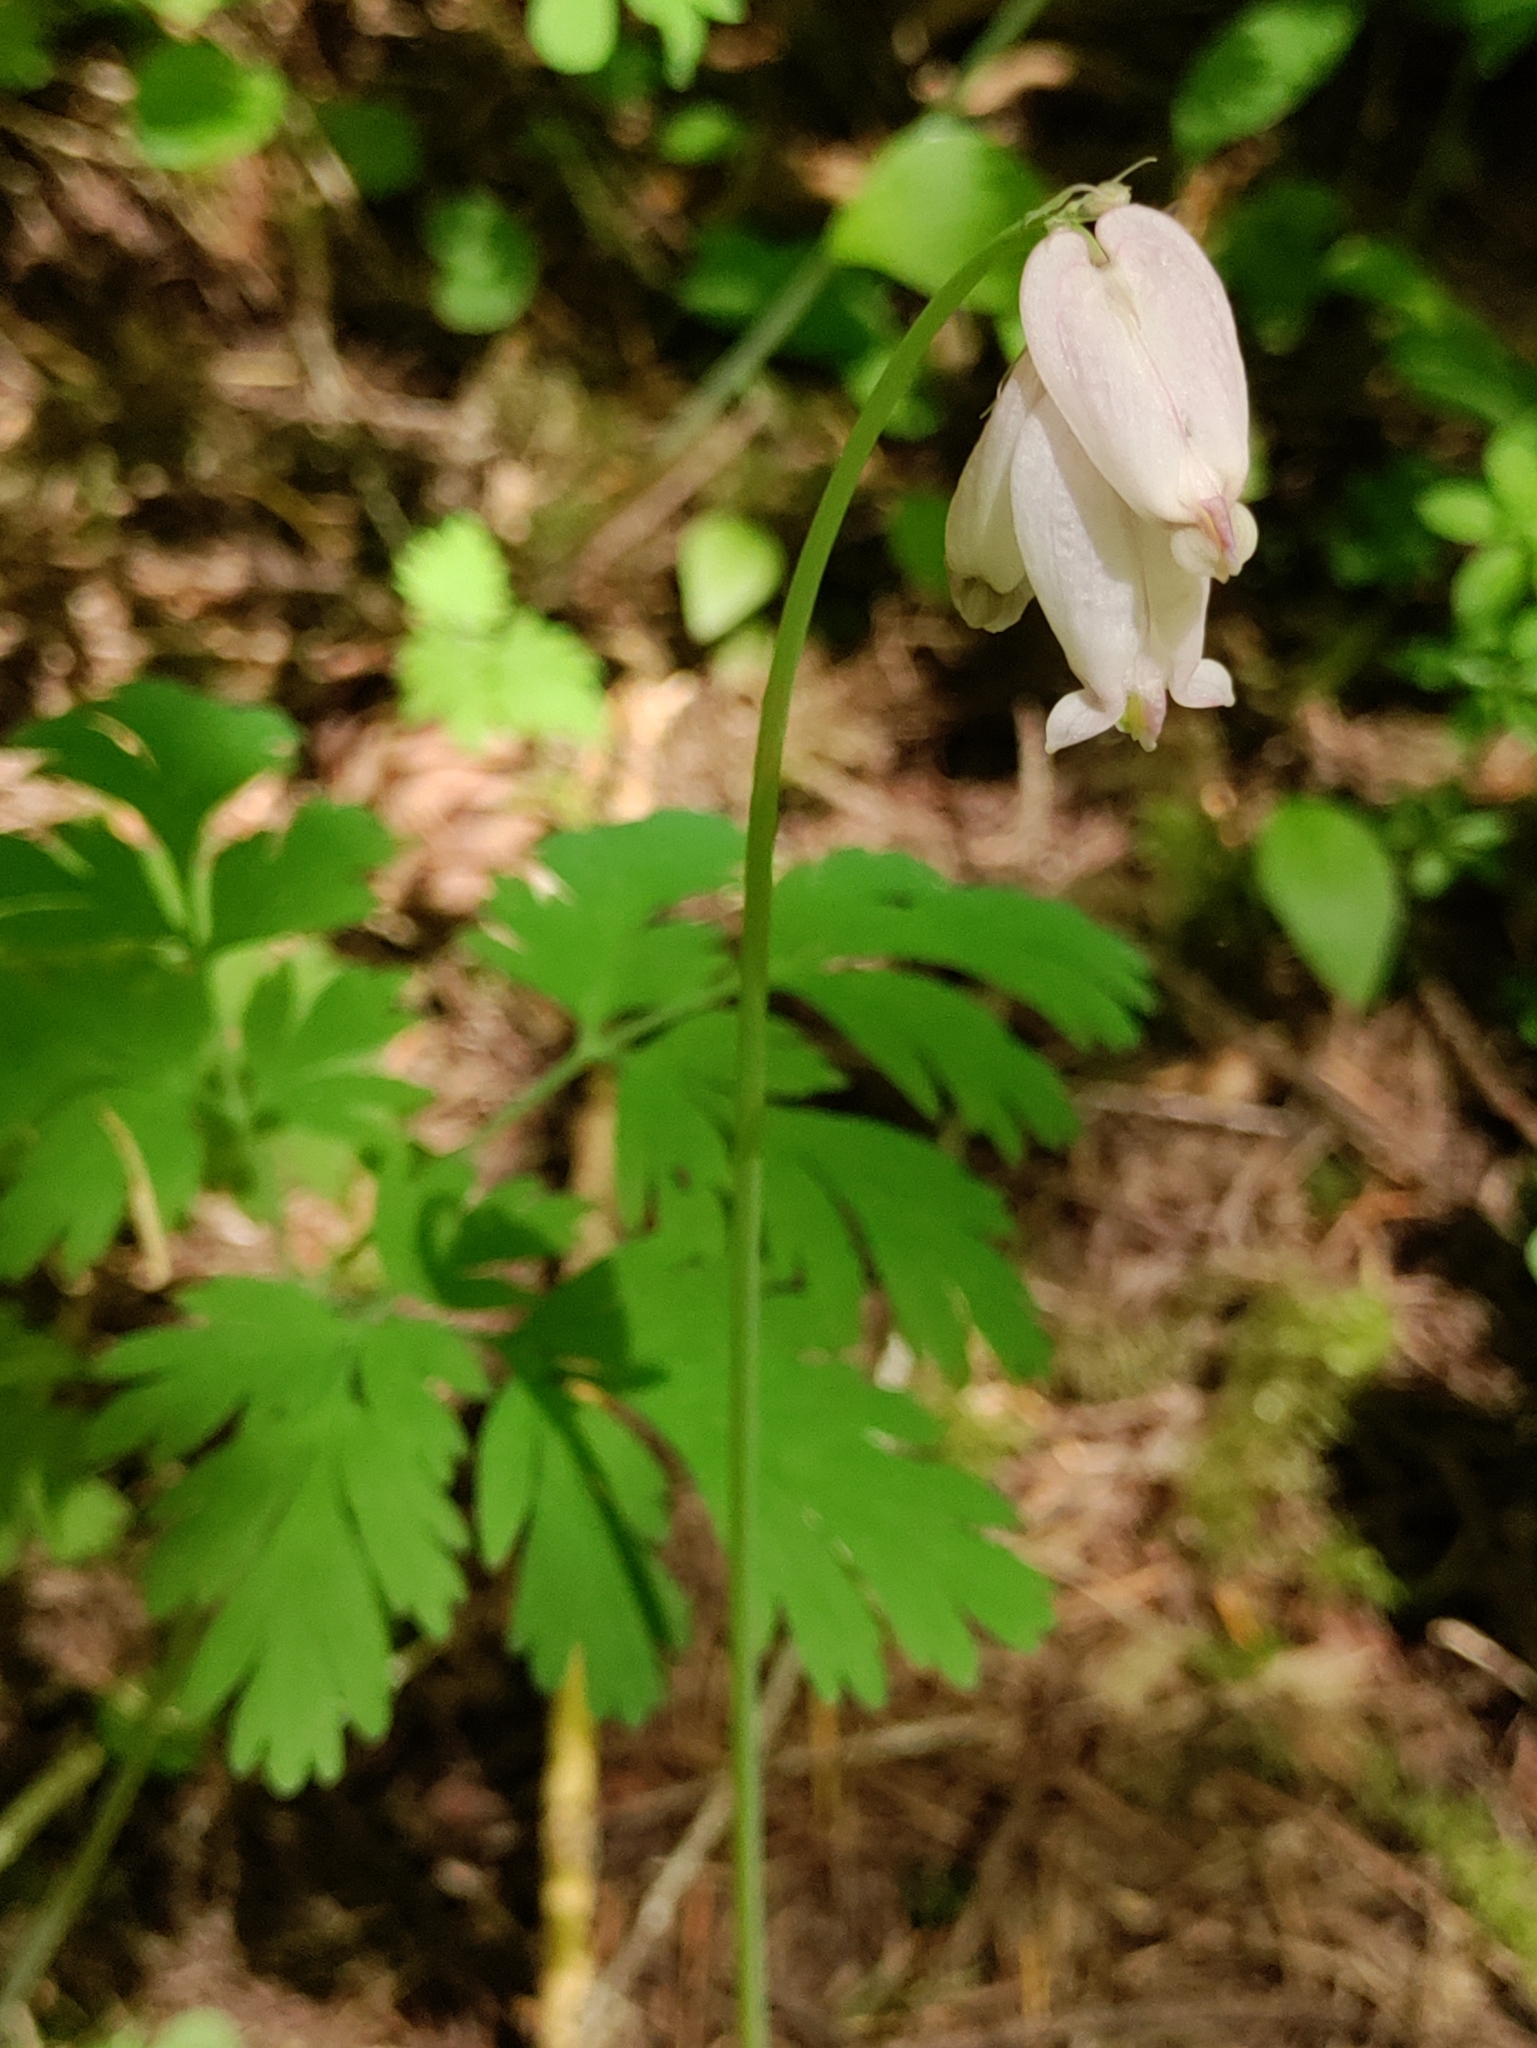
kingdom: Plantae
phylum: Tracheophyta
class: Magnoliopsida
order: Ranunculales
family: Papaveraceae
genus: Dicentra
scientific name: Dicentra formosa
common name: Bleeding-heart
